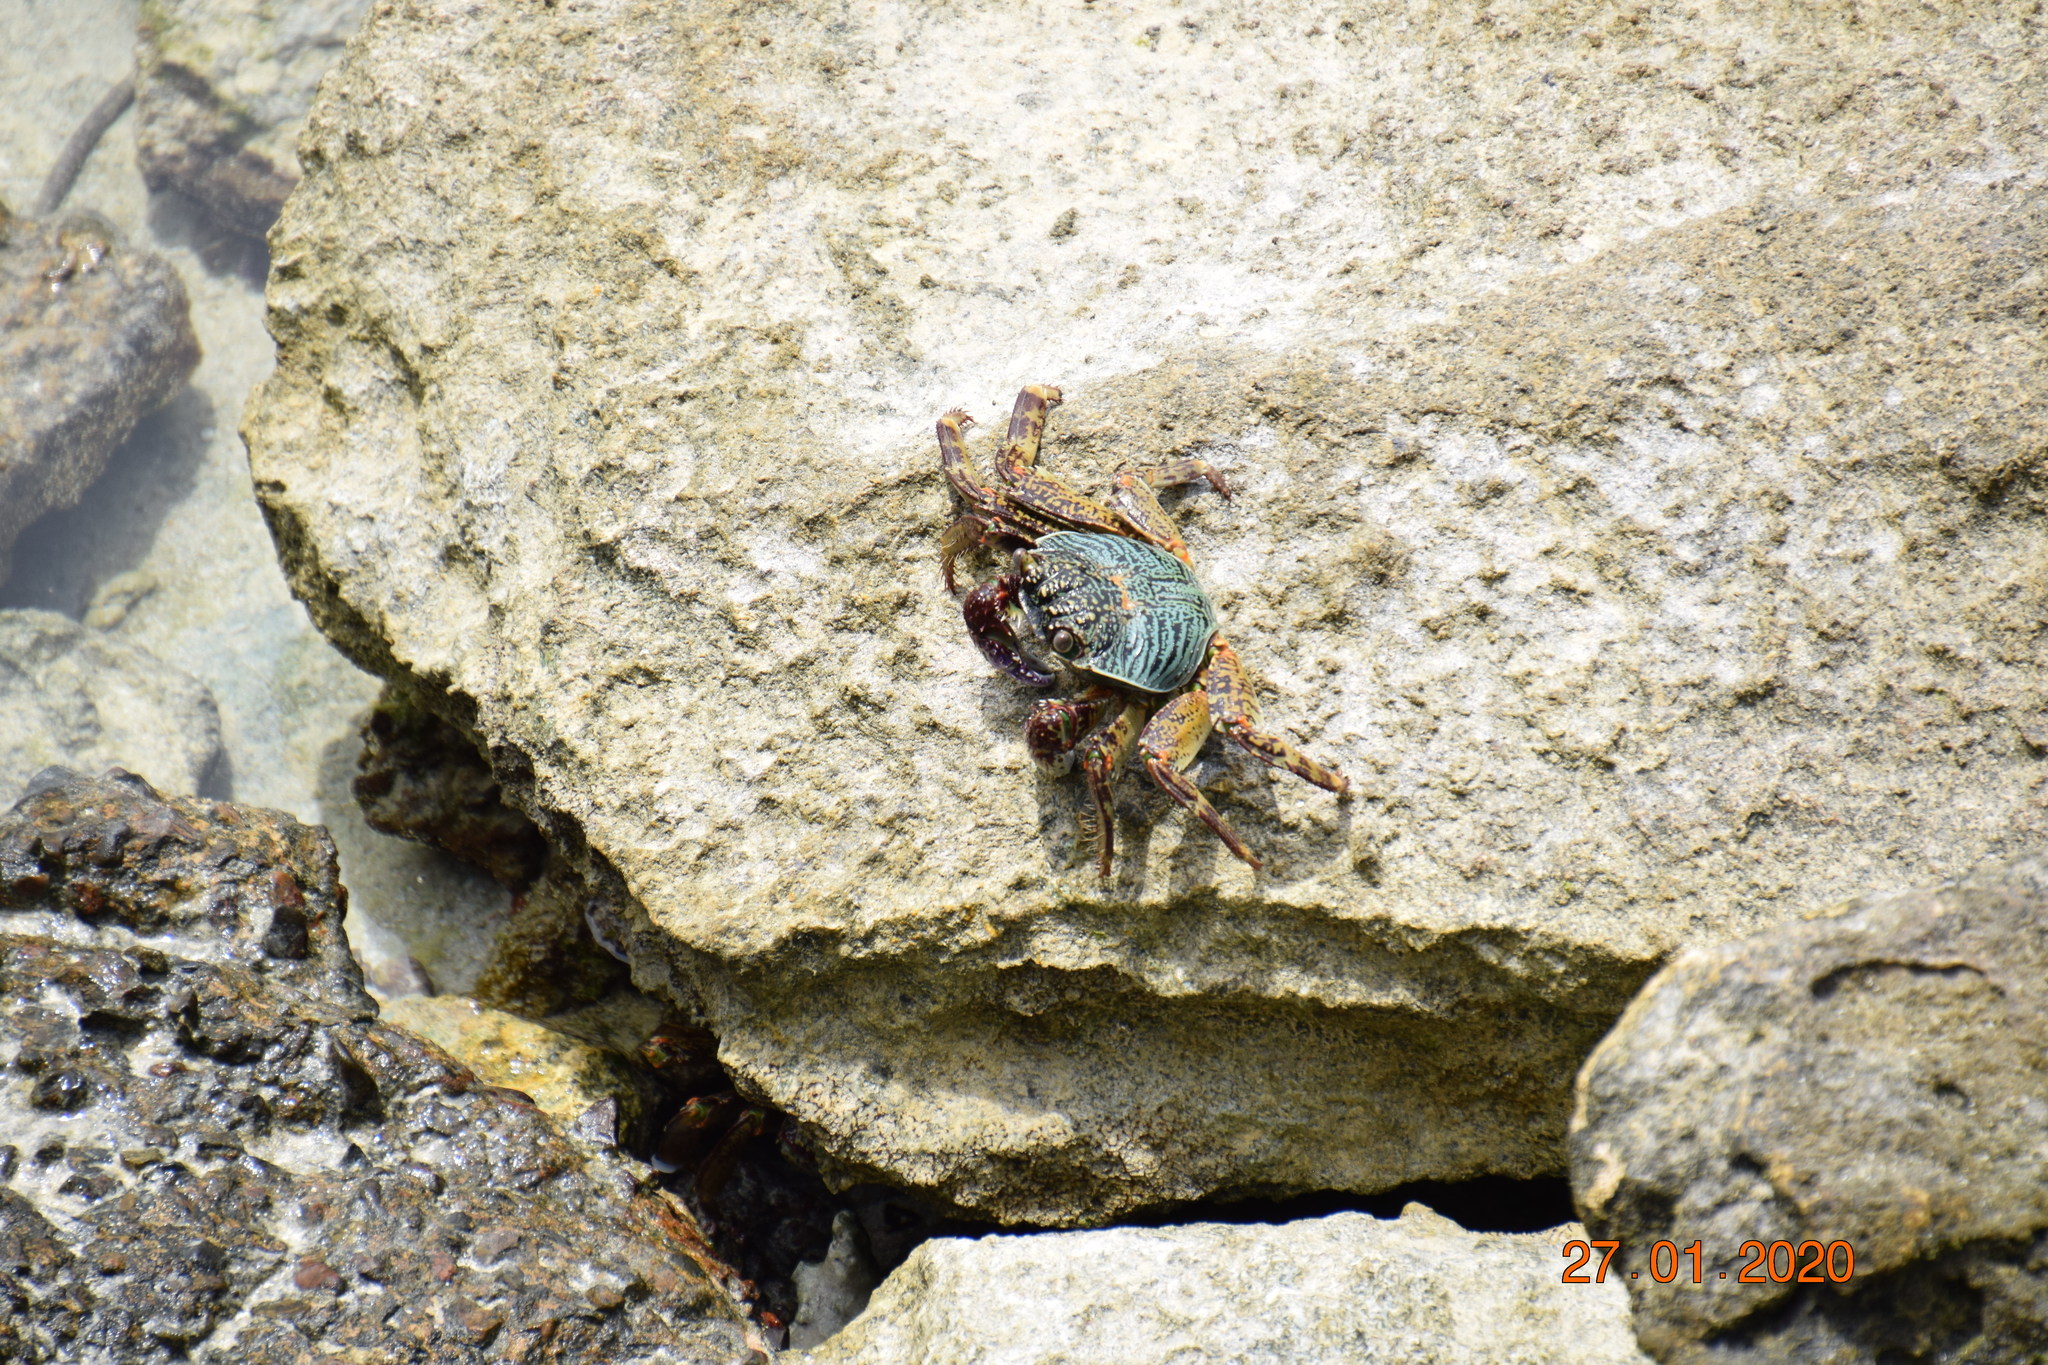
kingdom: Animalia
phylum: Arthropoda
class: Malacostraca
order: Decapoda
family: Grapsidae
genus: Grapsus
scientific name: Grapsus albolineatus
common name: Mottled lightfoot crab
